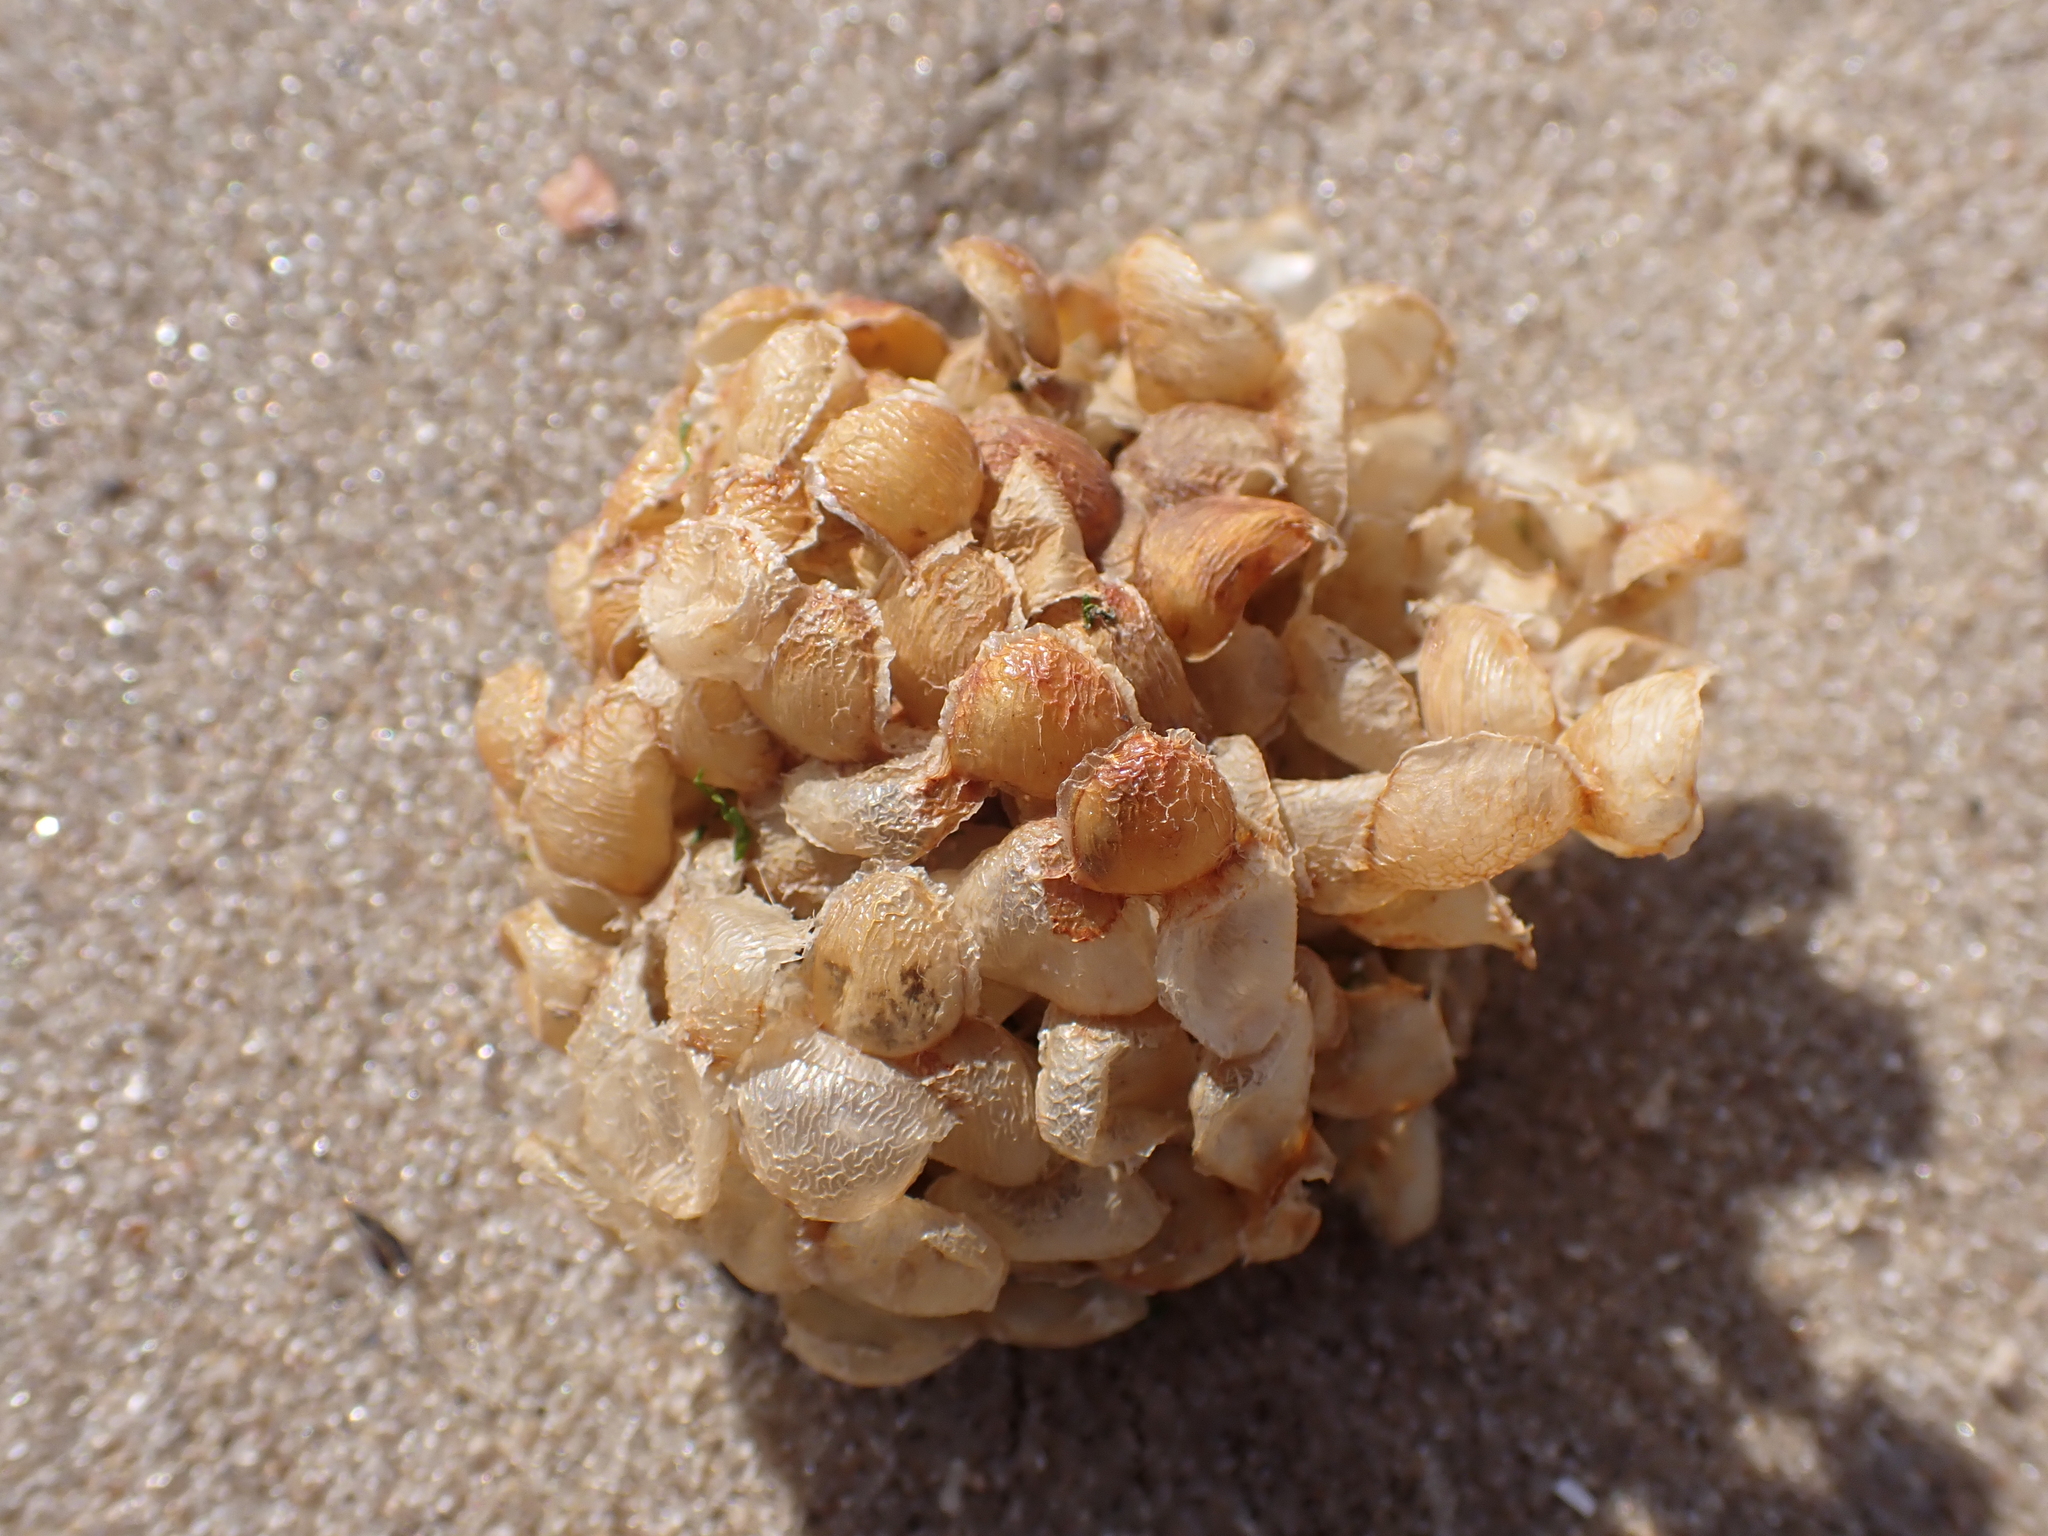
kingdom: Animalia
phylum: Mollusca
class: Gastropoda
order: Neogastropoda
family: Buccinidae
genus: Buccinum
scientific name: Buccinum undatum
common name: Common whelk
